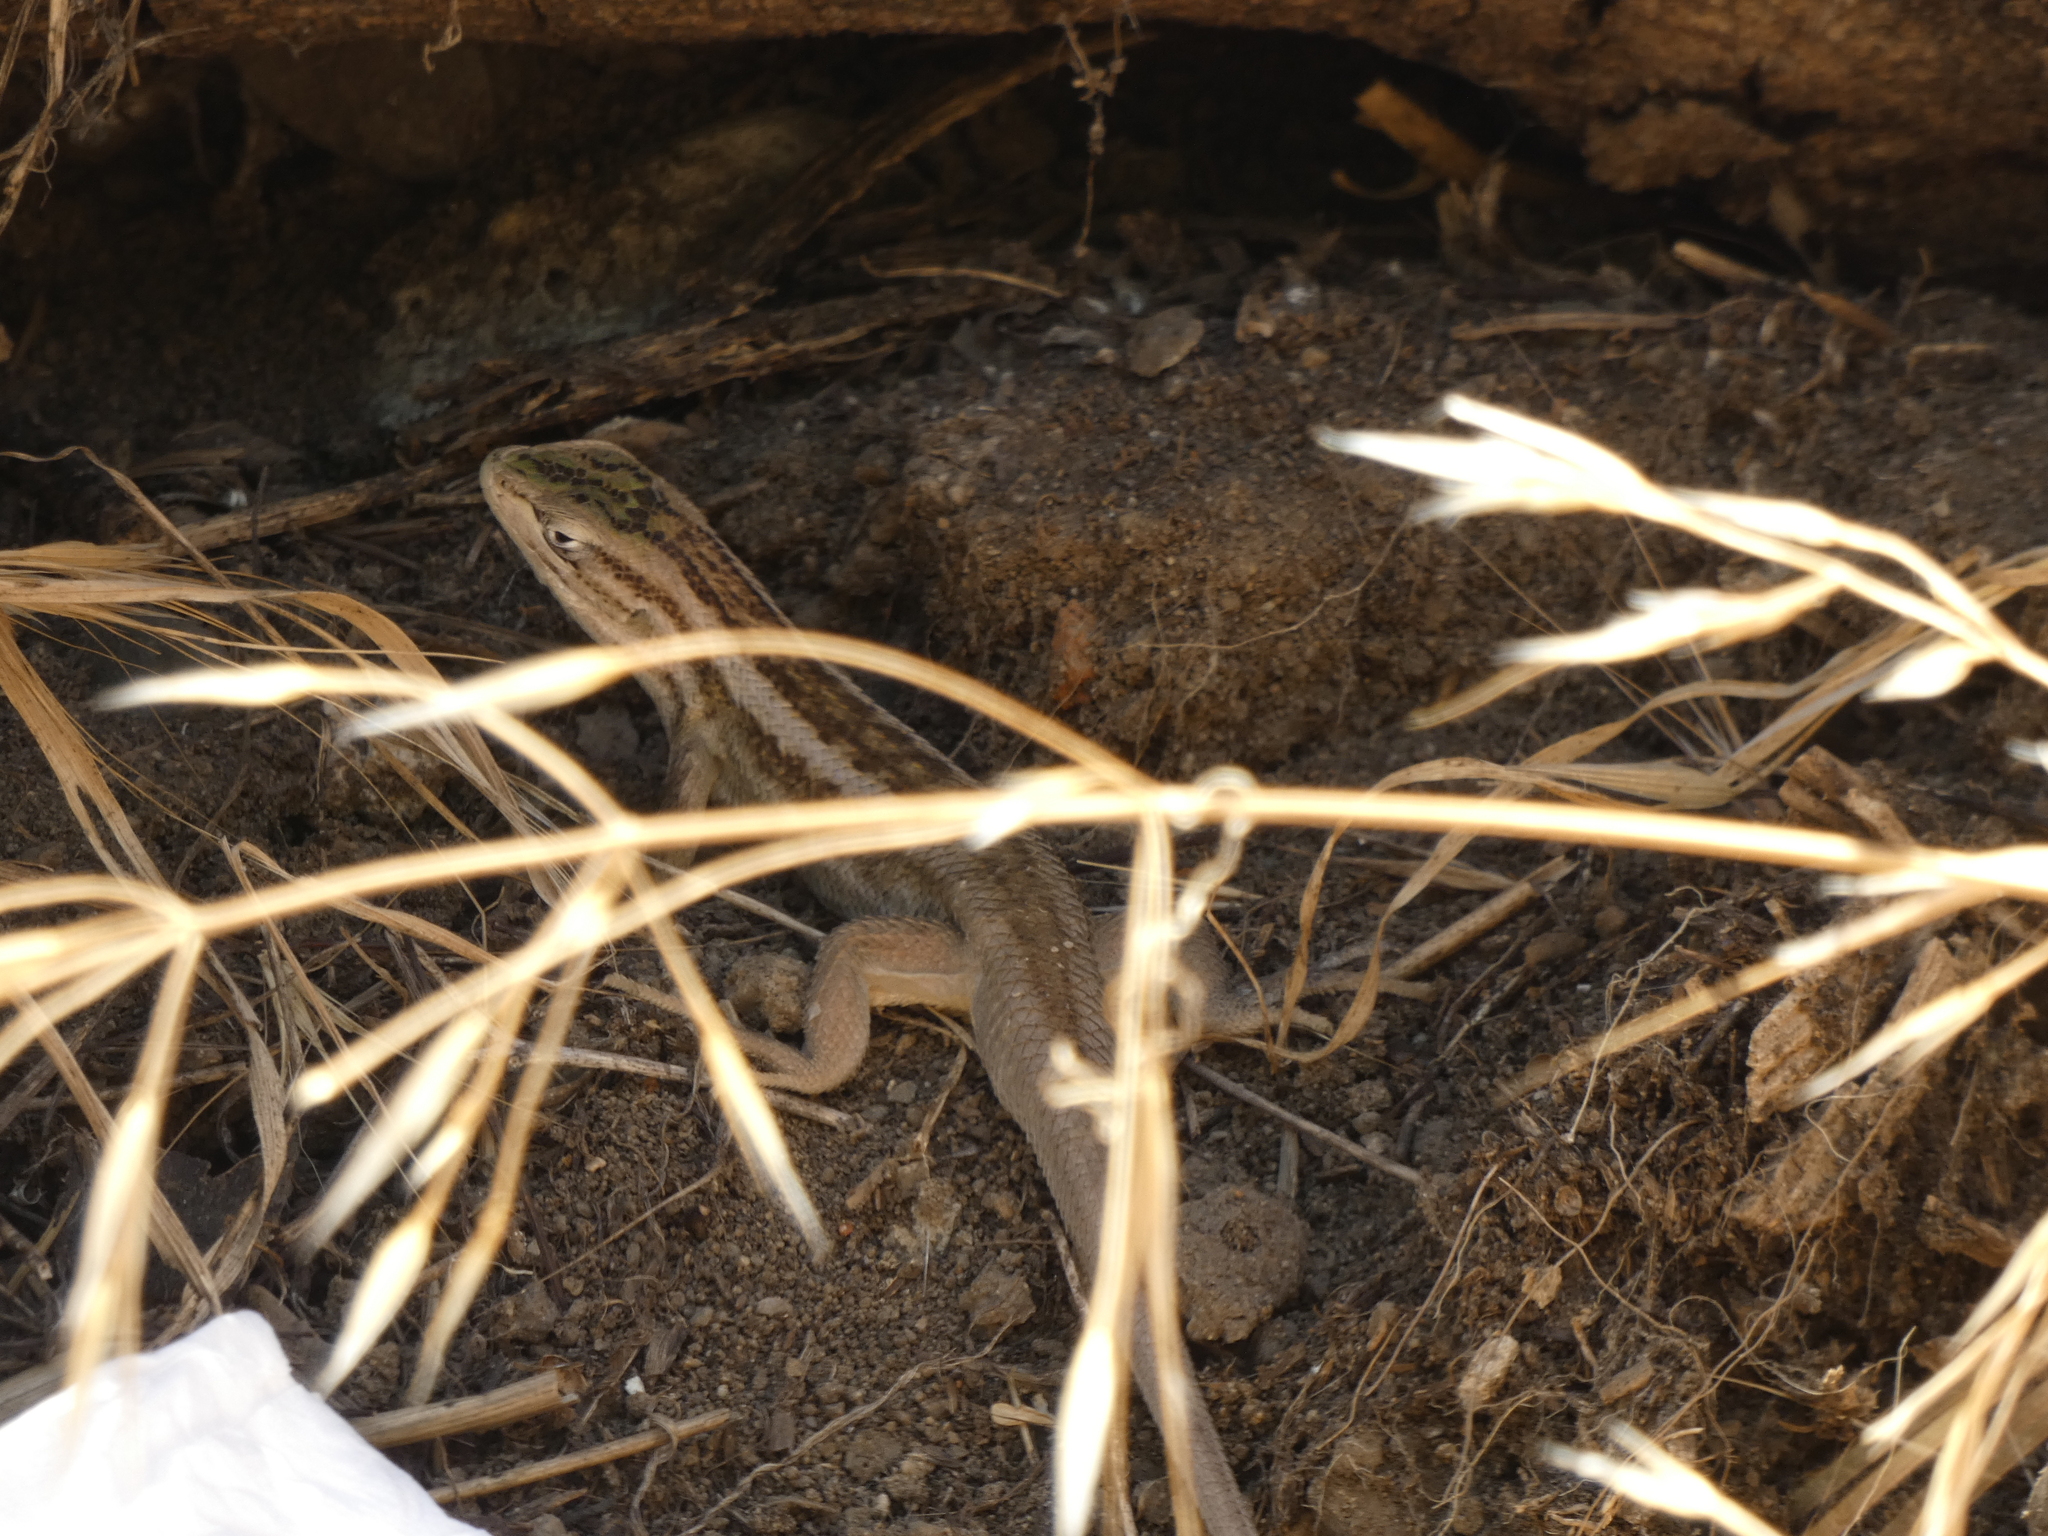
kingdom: Animalia
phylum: Chordata
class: Squamata
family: Liolaemidae
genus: Liolaemus
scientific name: Liolaemus chiliensis
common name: Chilean tree iguana
